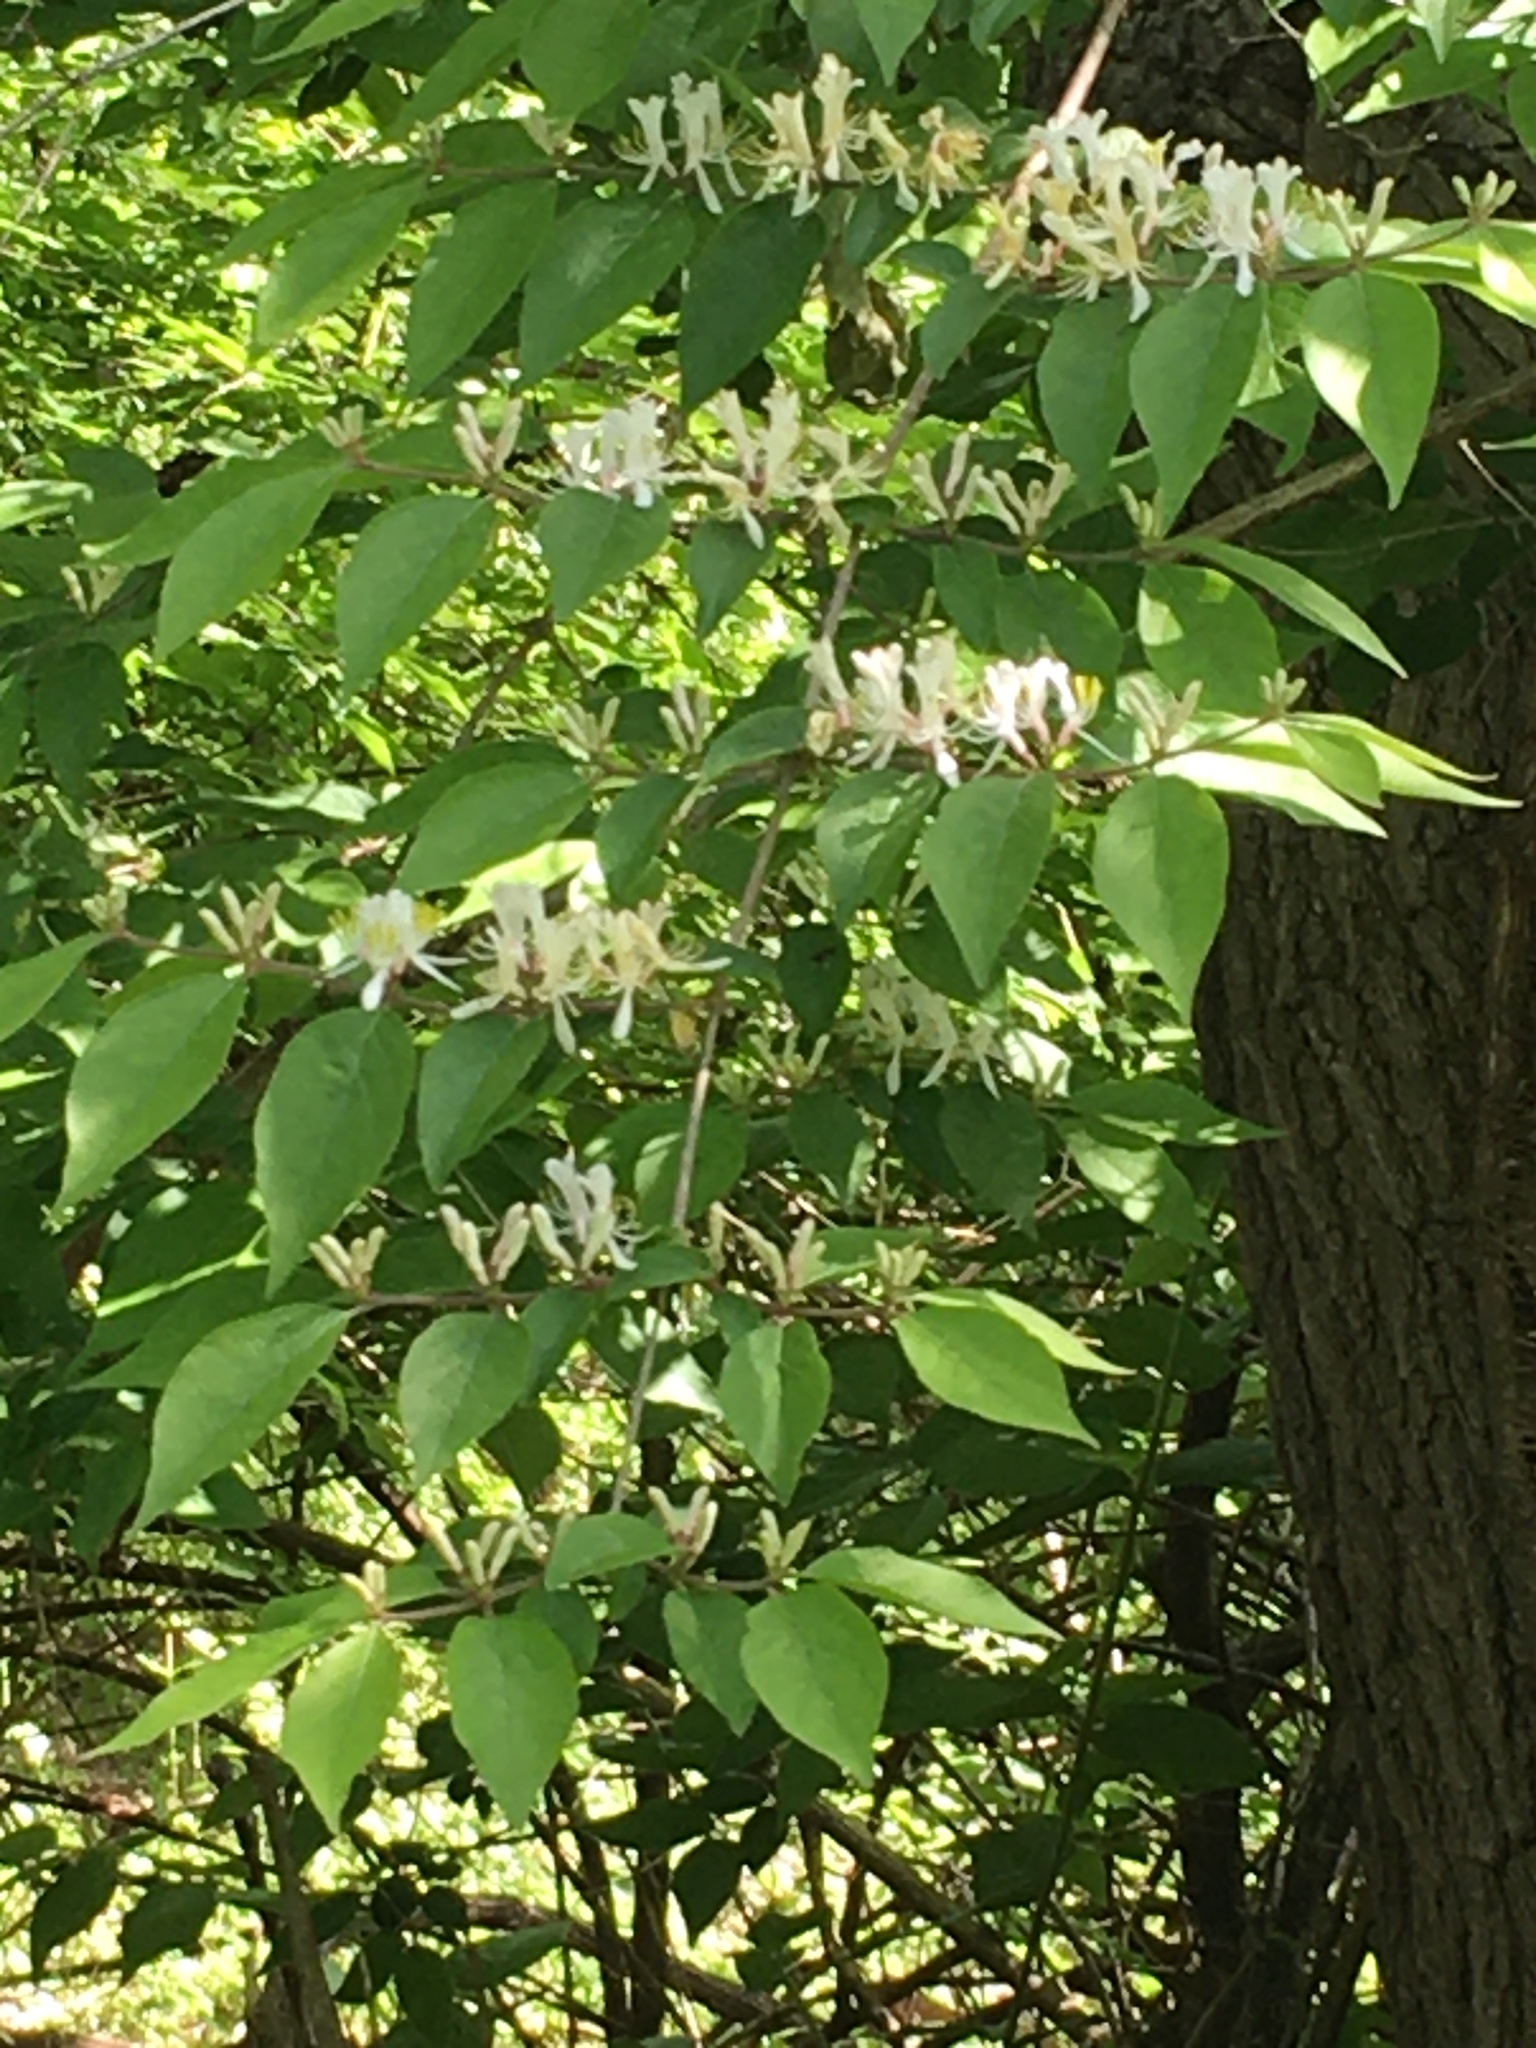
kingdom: Plantae
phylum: Tracheophyta
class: Magnoliopsida
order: Dipsacales
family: Caprifoliaceae
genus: Lonicera
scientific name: Lonicera maackii
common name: Amur honeysuckle
